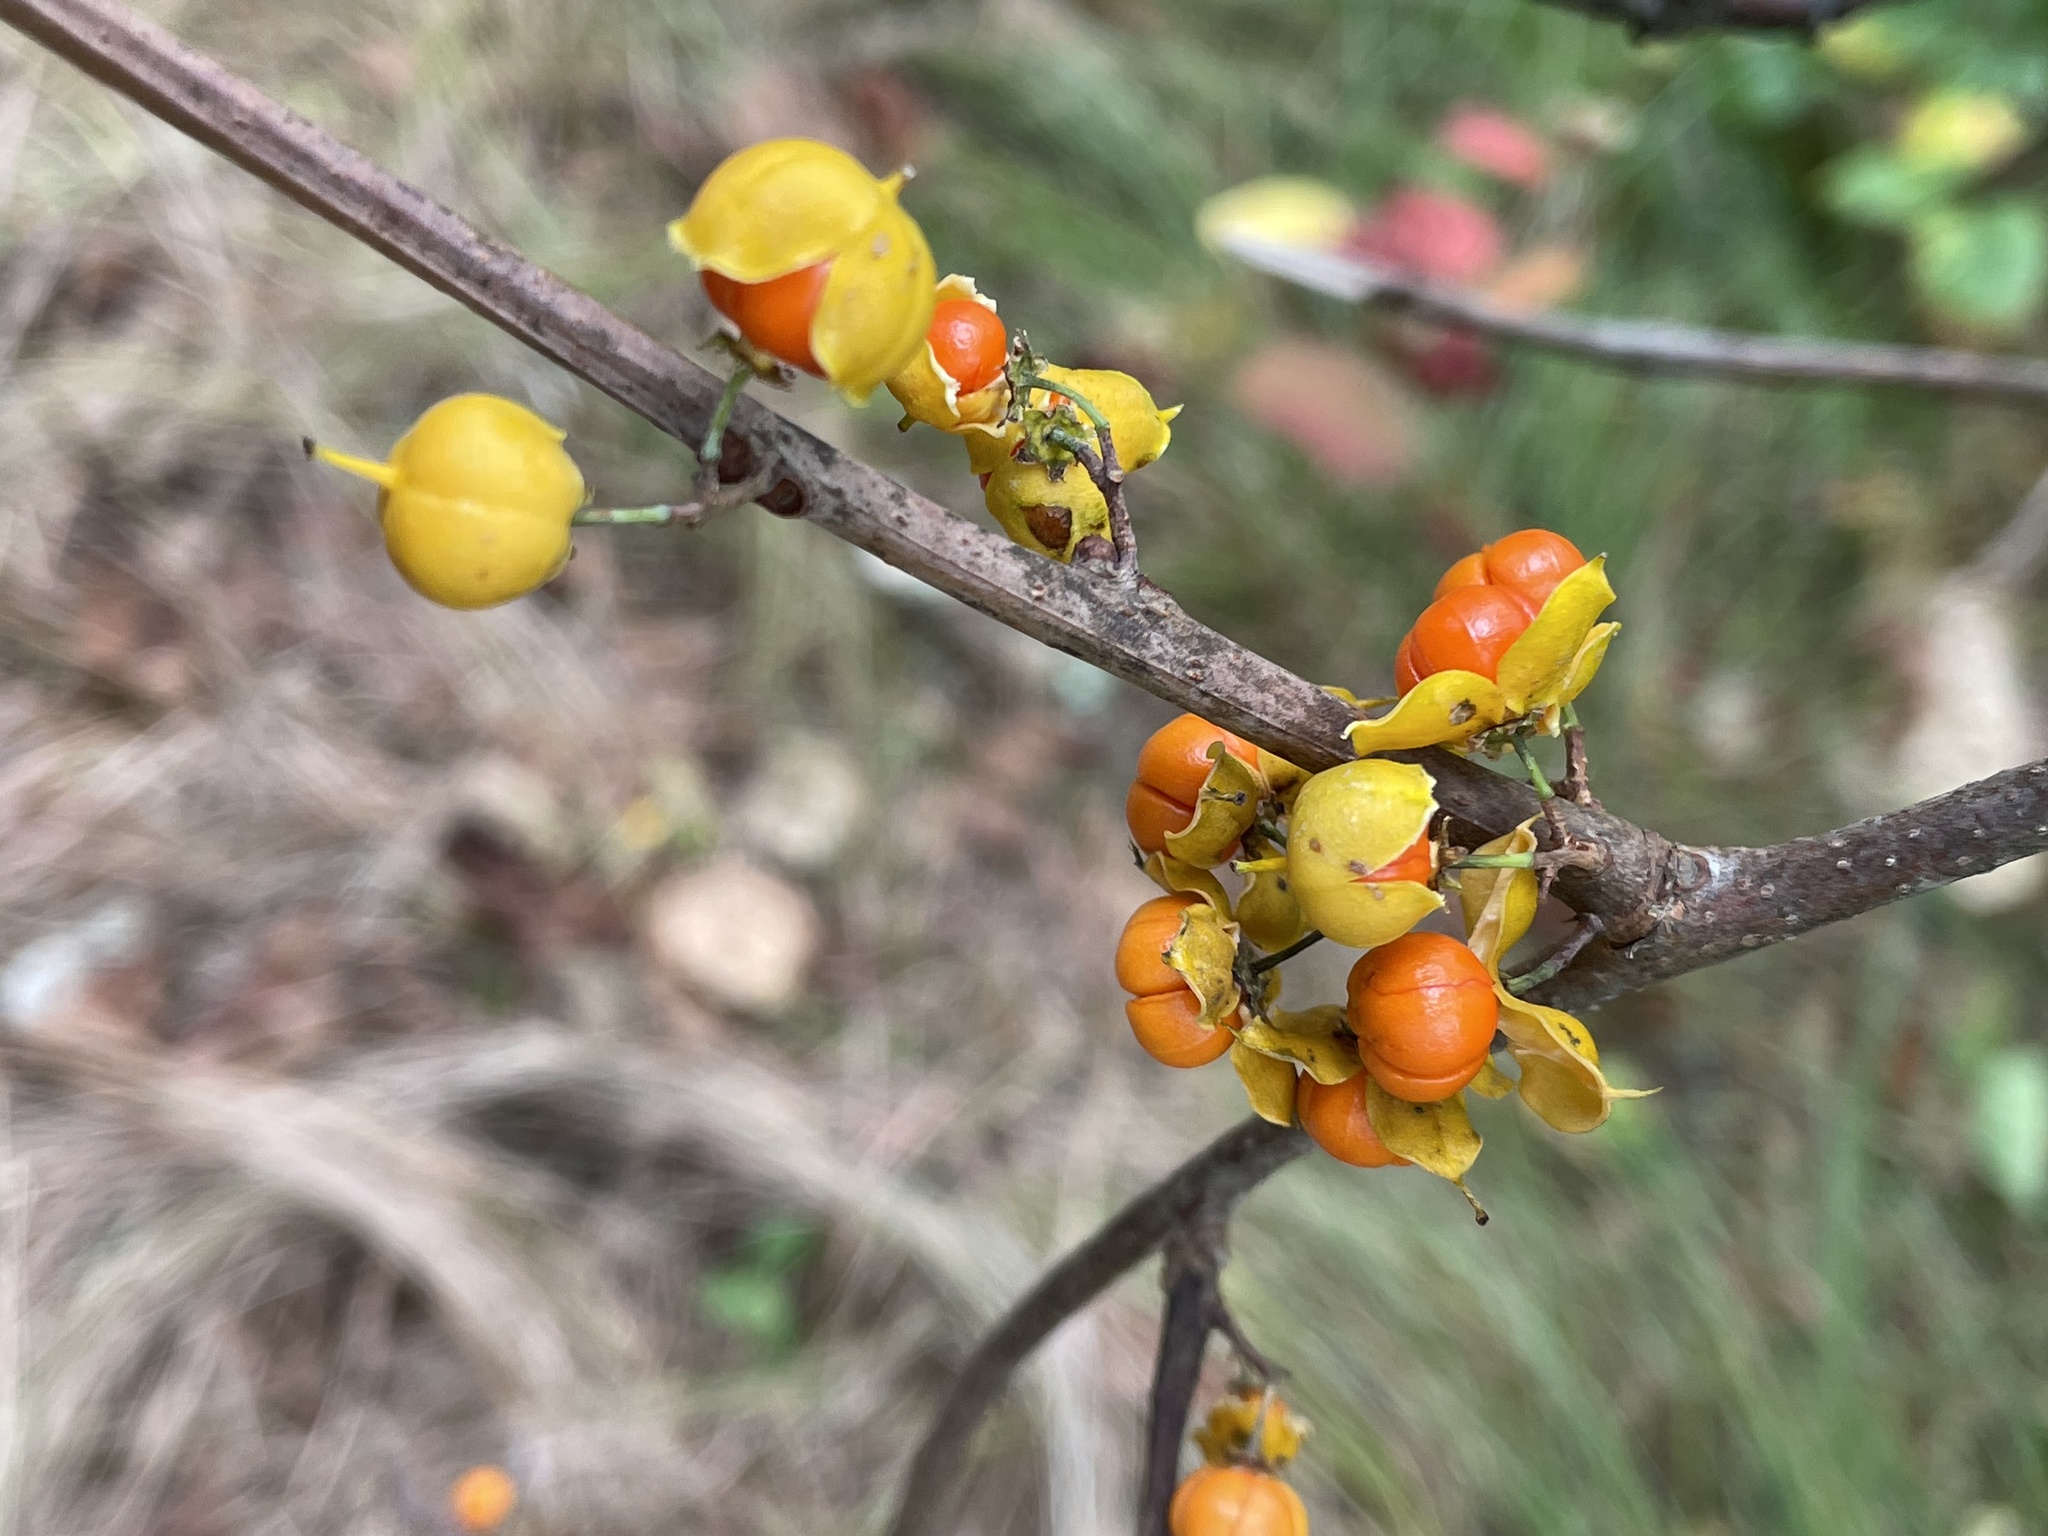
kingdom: Plantae
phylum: Tracheophyta
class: Magnoliopsida
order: Celastrales
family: Celastraceae
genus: Celastrus
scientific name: Celastrus orbiculatus
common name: Oriental bittersweet
